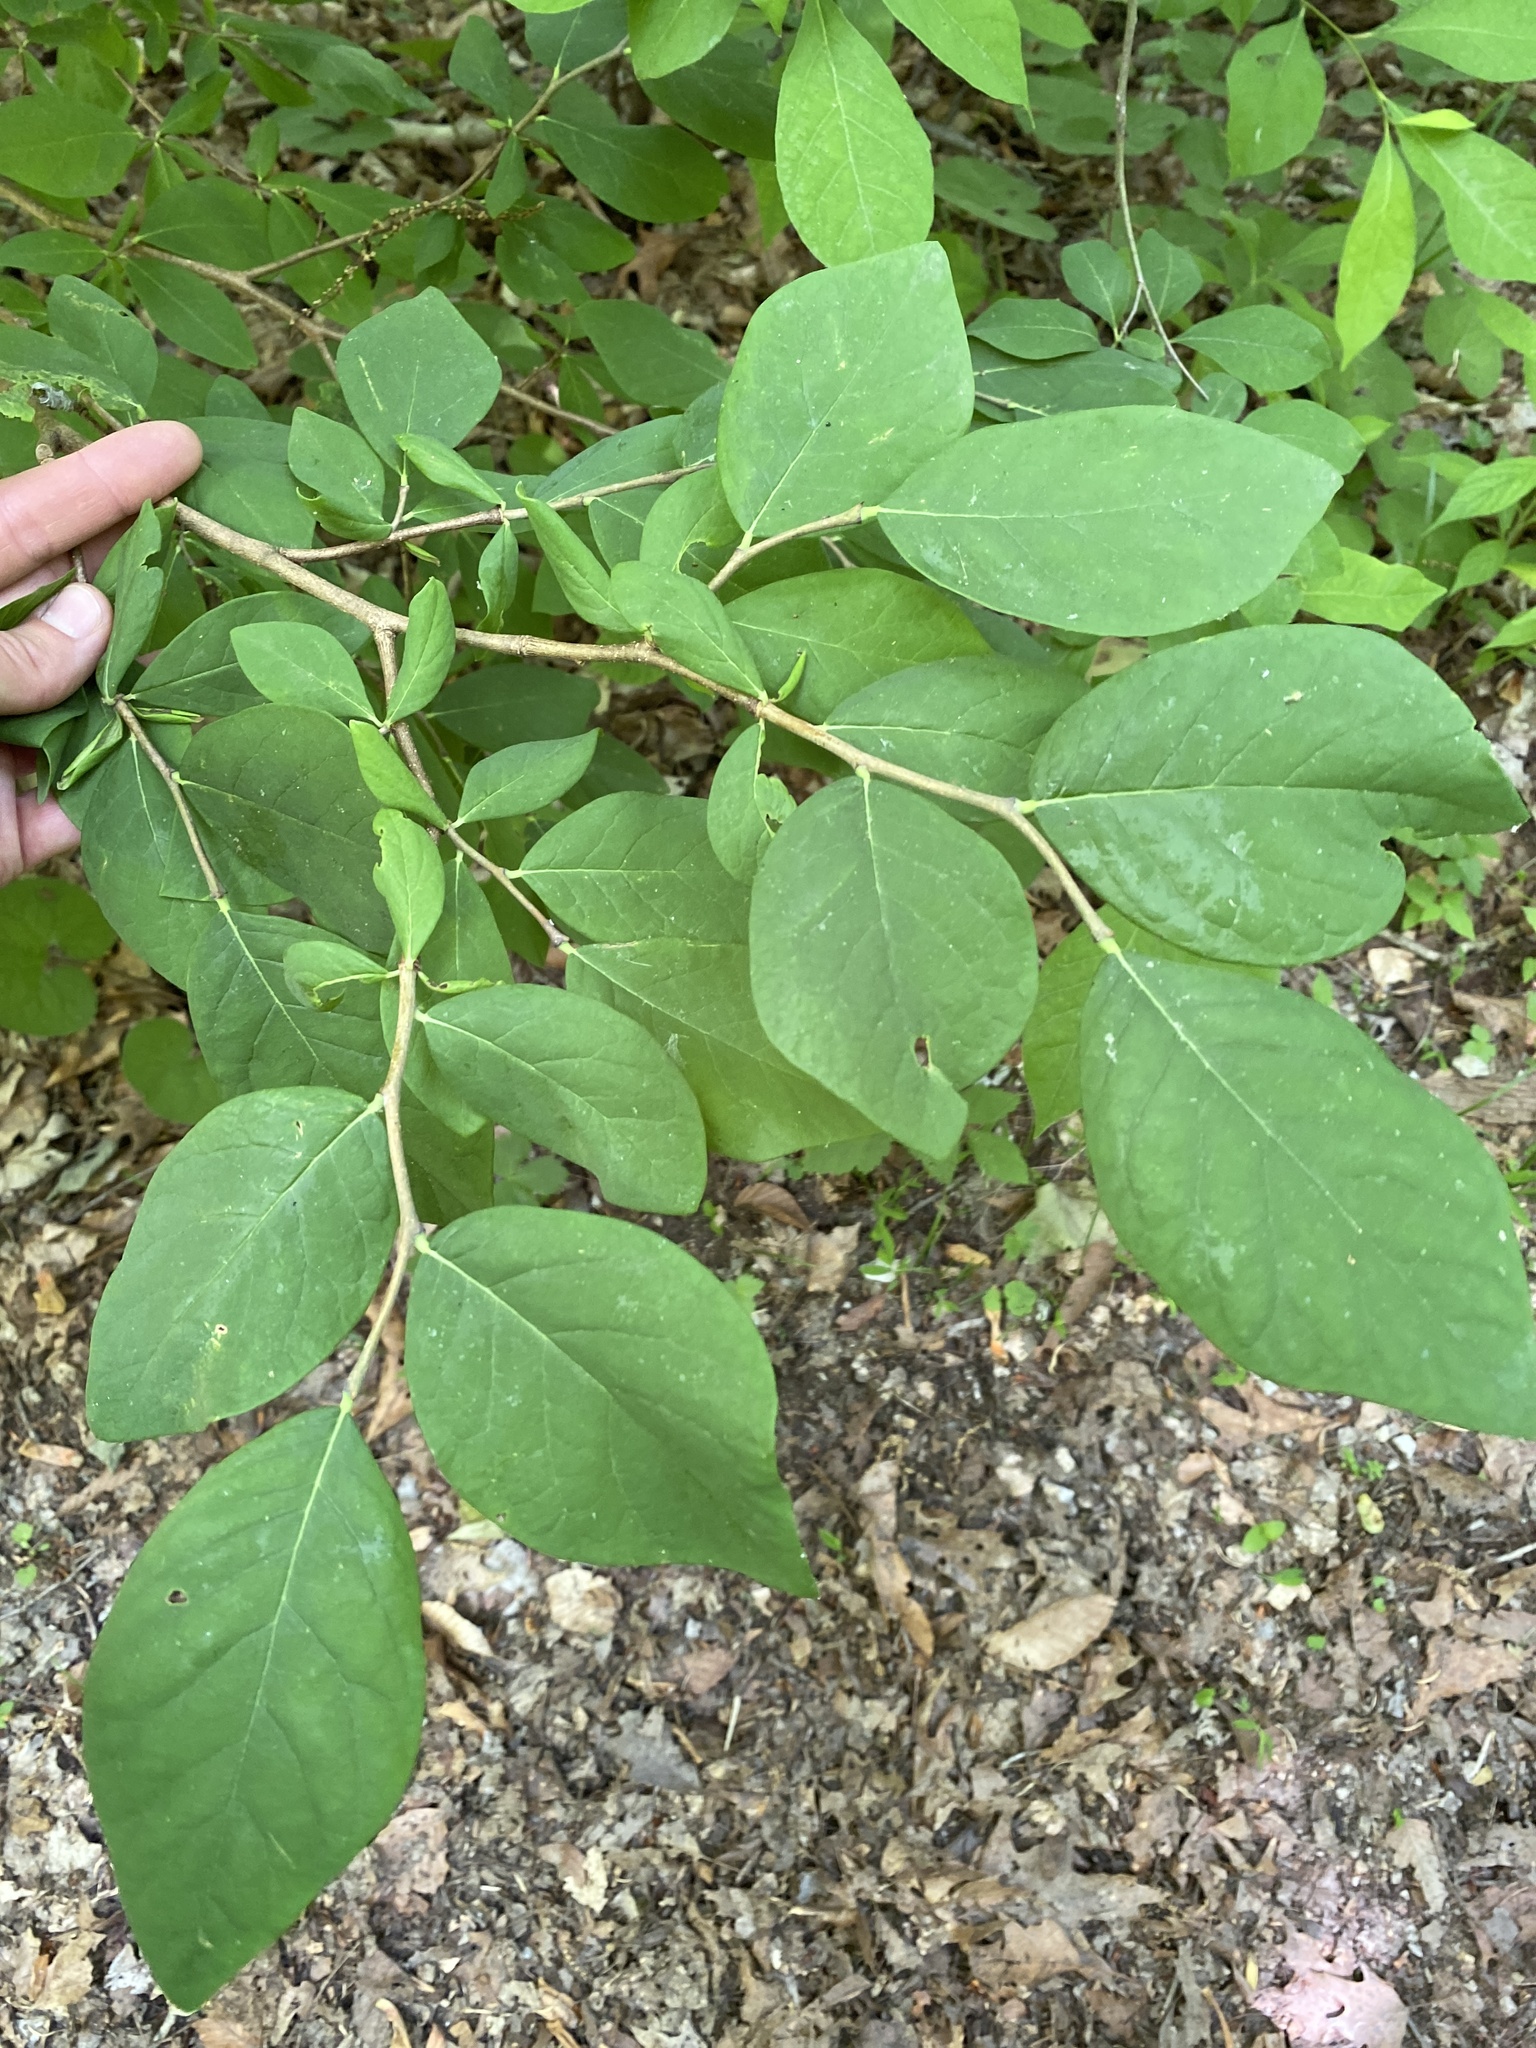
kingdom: Plantae
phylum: Tracheophyta
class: Magnoliopsida
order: Malvales
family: Thymelaeaceae
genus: Dirca
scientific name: Dirca palustris
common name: Leatherwood
